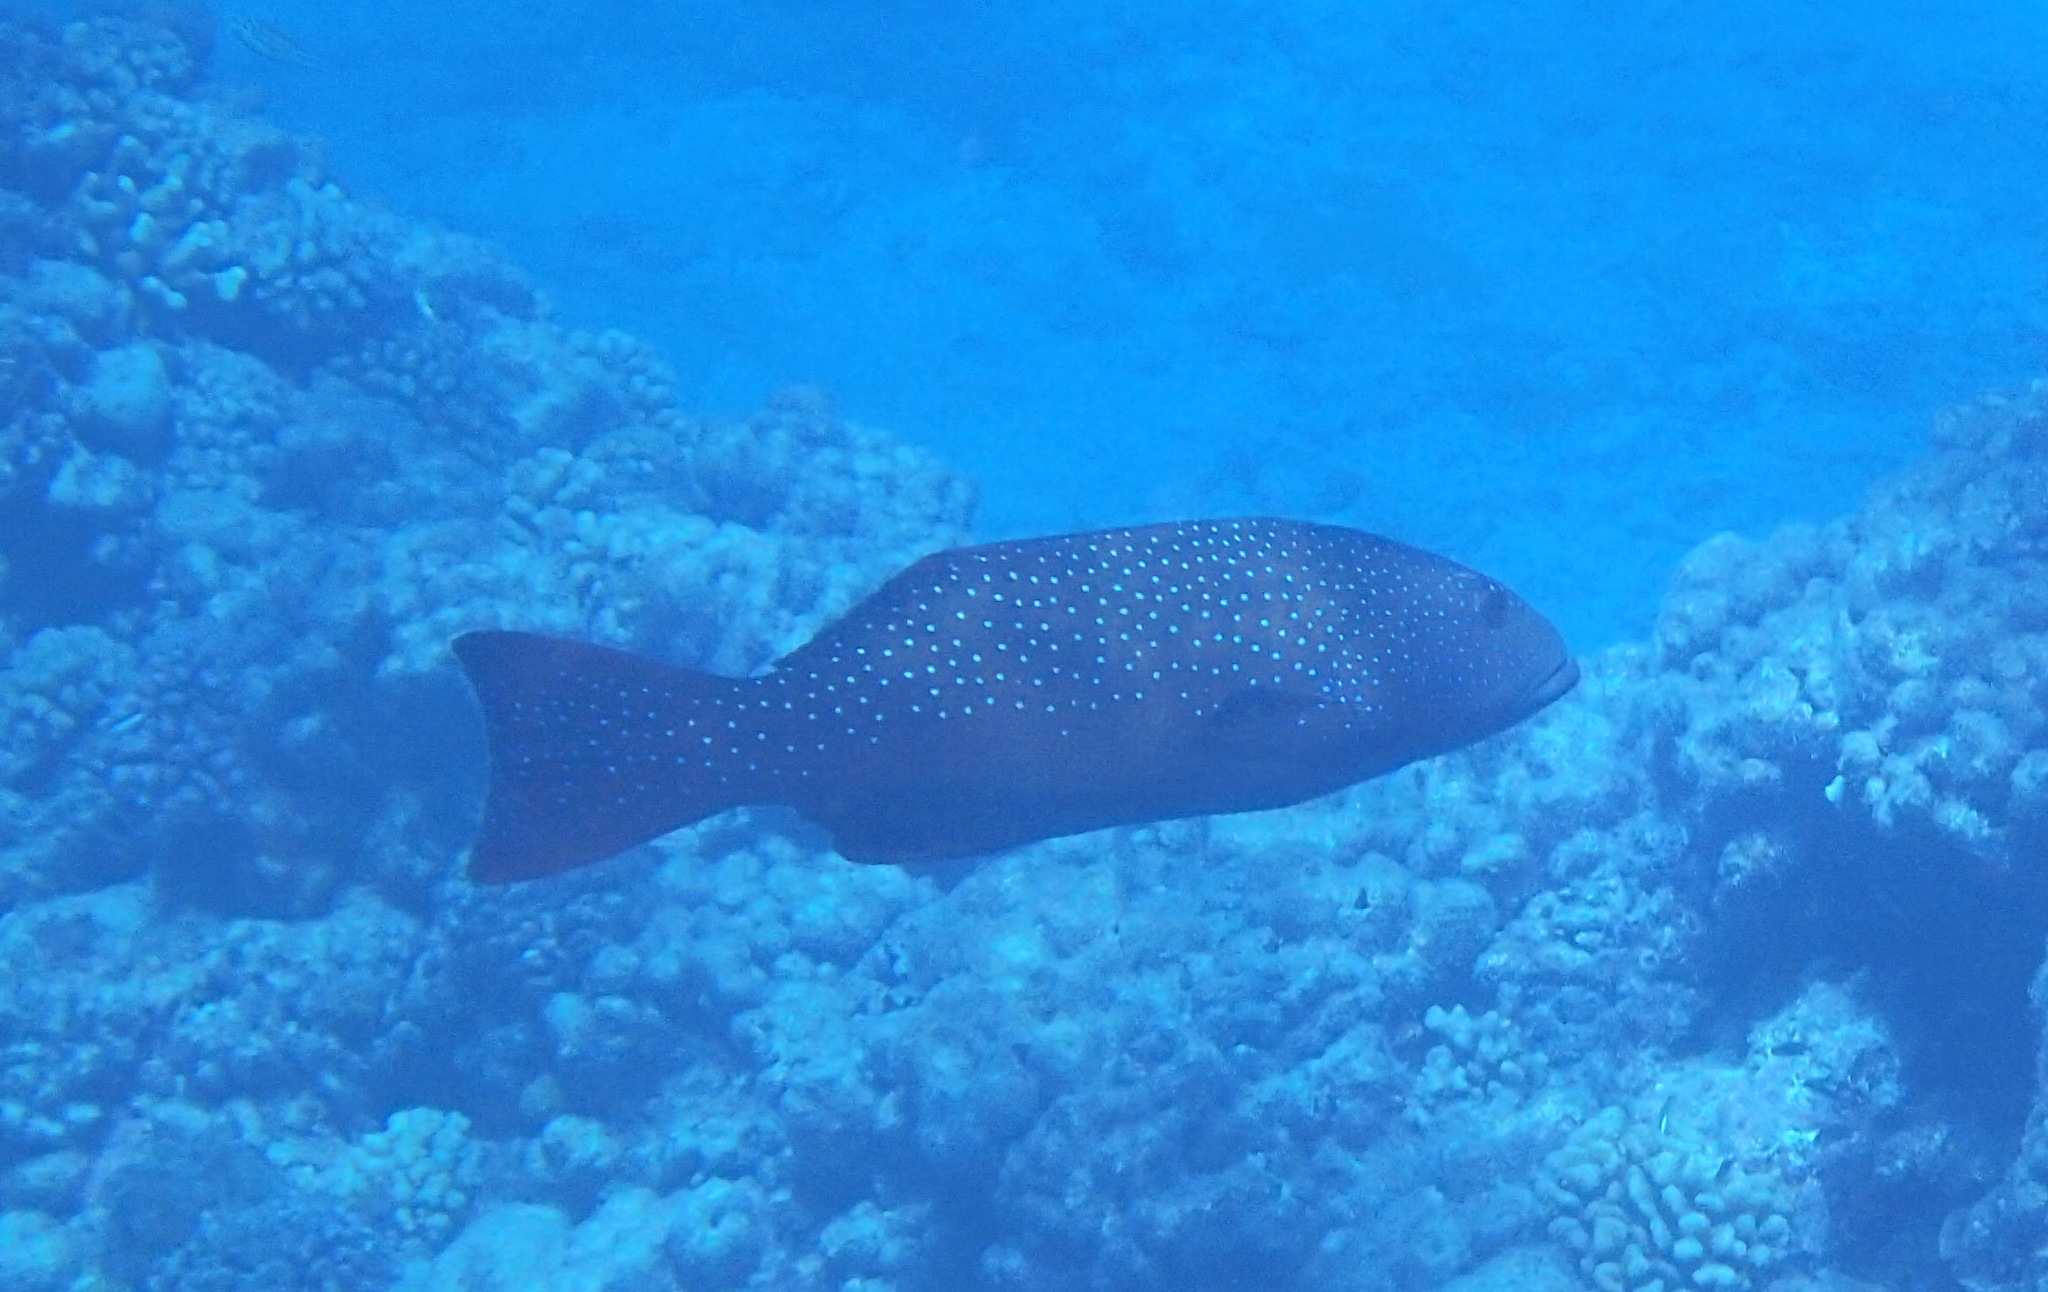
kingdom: Animalia
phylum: Chordata
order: Perciformes
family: Serranidae
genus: Plectropomus
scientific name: Plectropomus laevis
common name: Chinese footballer
